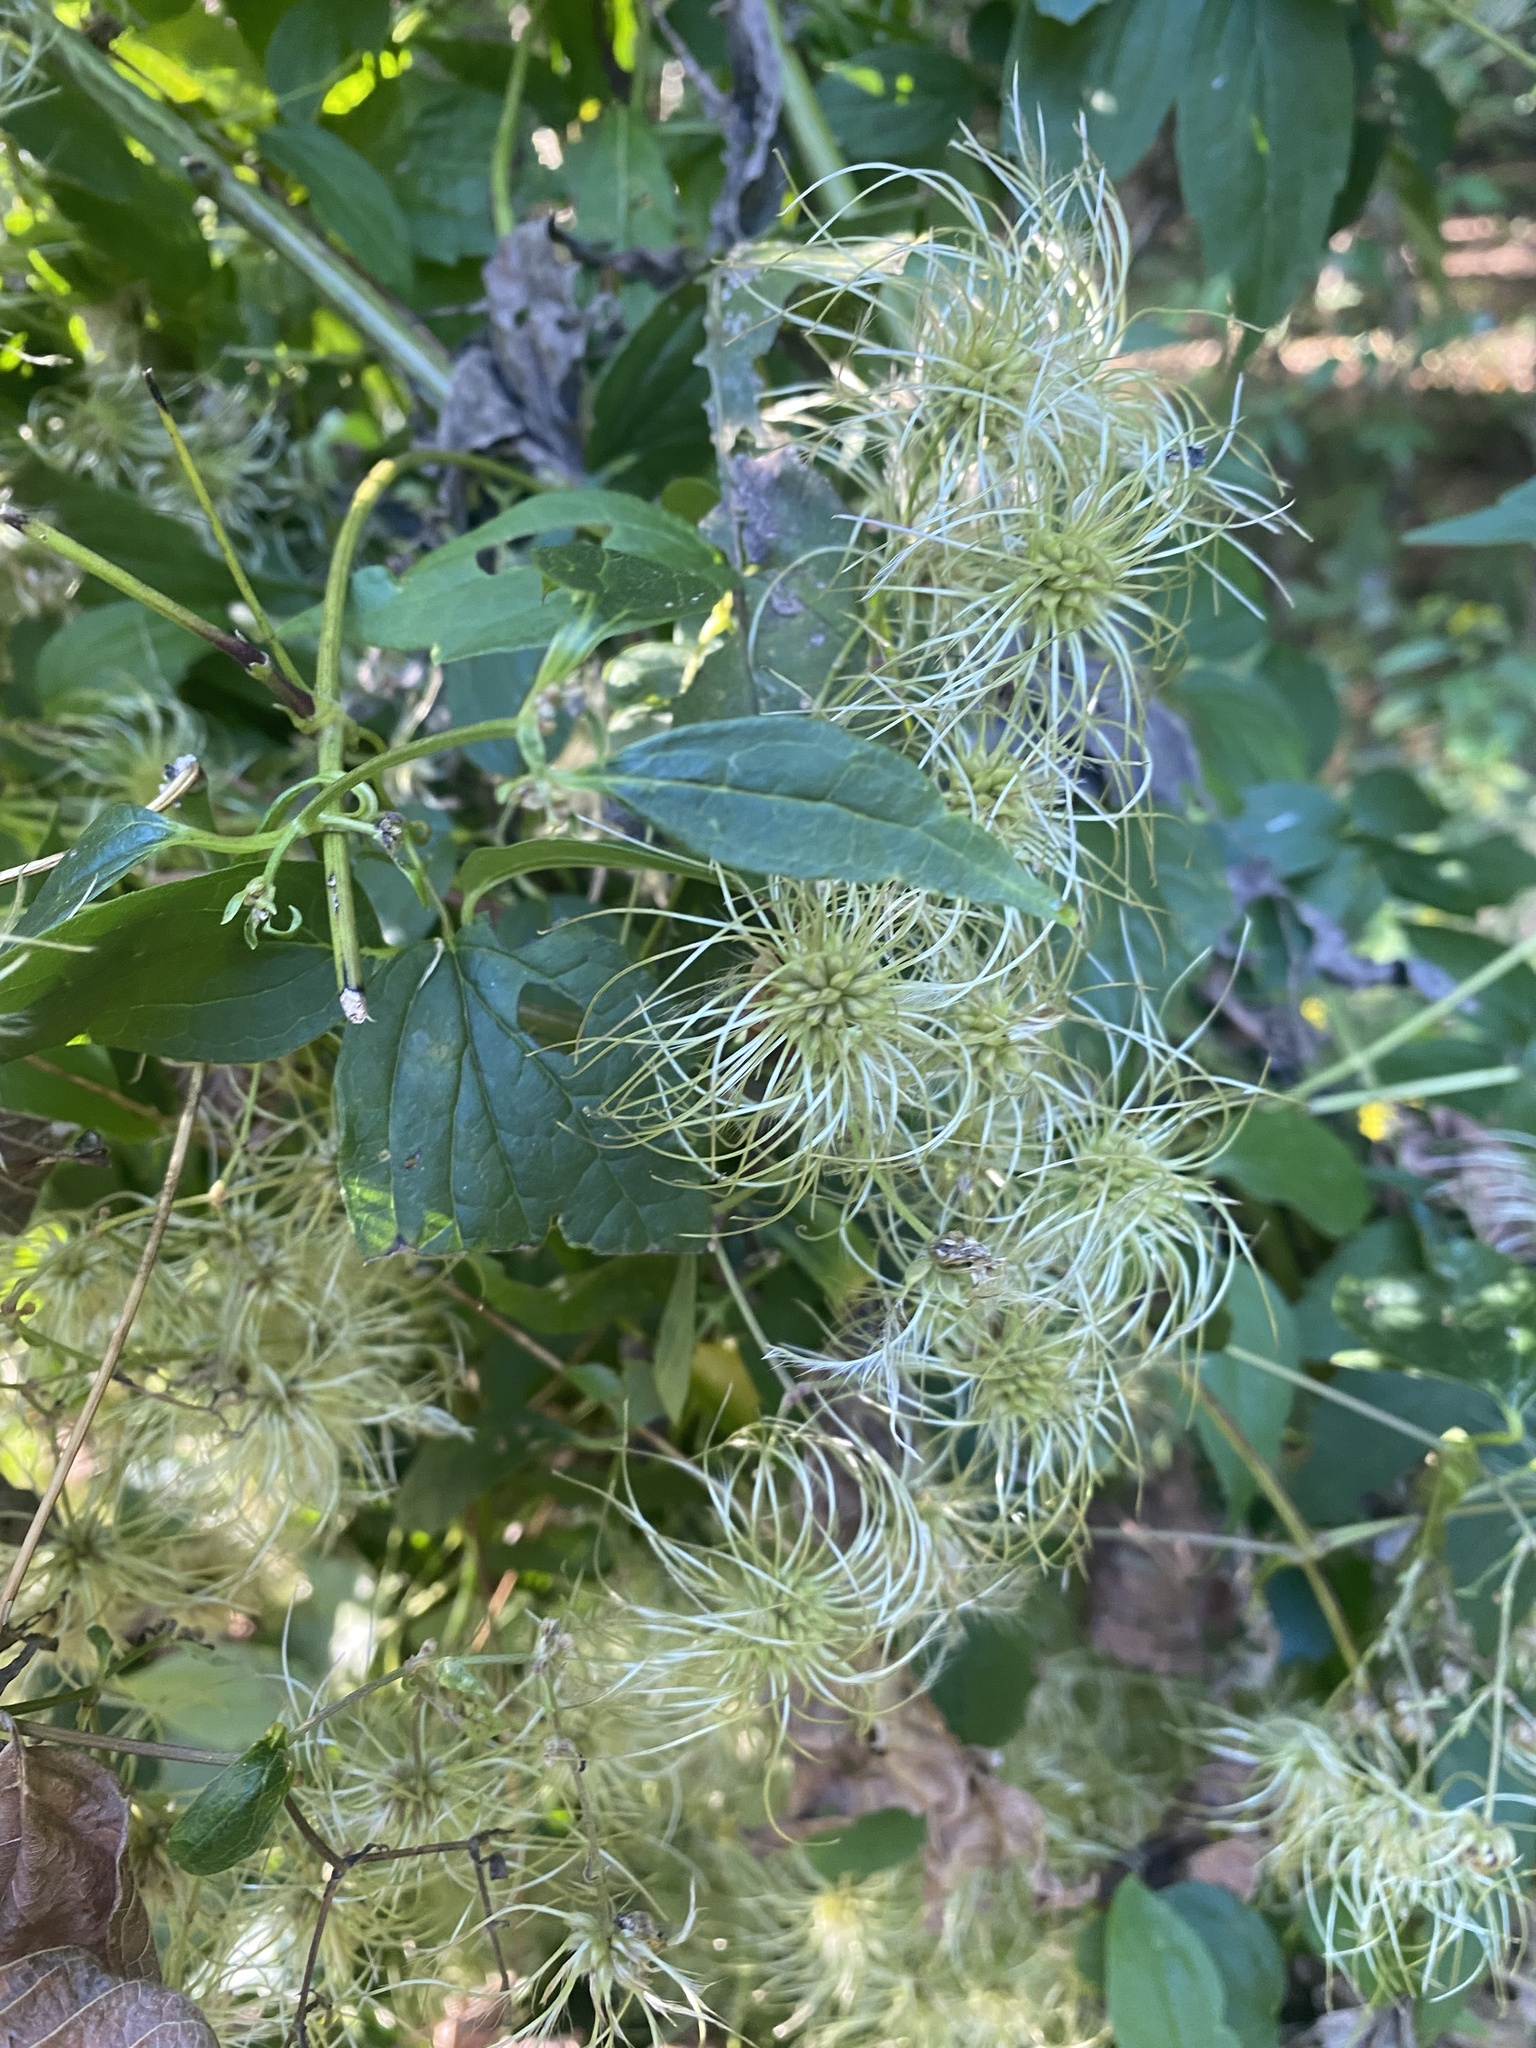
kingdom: Plantae
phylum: Tracheophyta
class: Magnoliopsida
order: Ranunculales
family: Ranunculaceae
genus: Clematis
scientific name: Clematis virginiana
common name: Virgin's-bower
